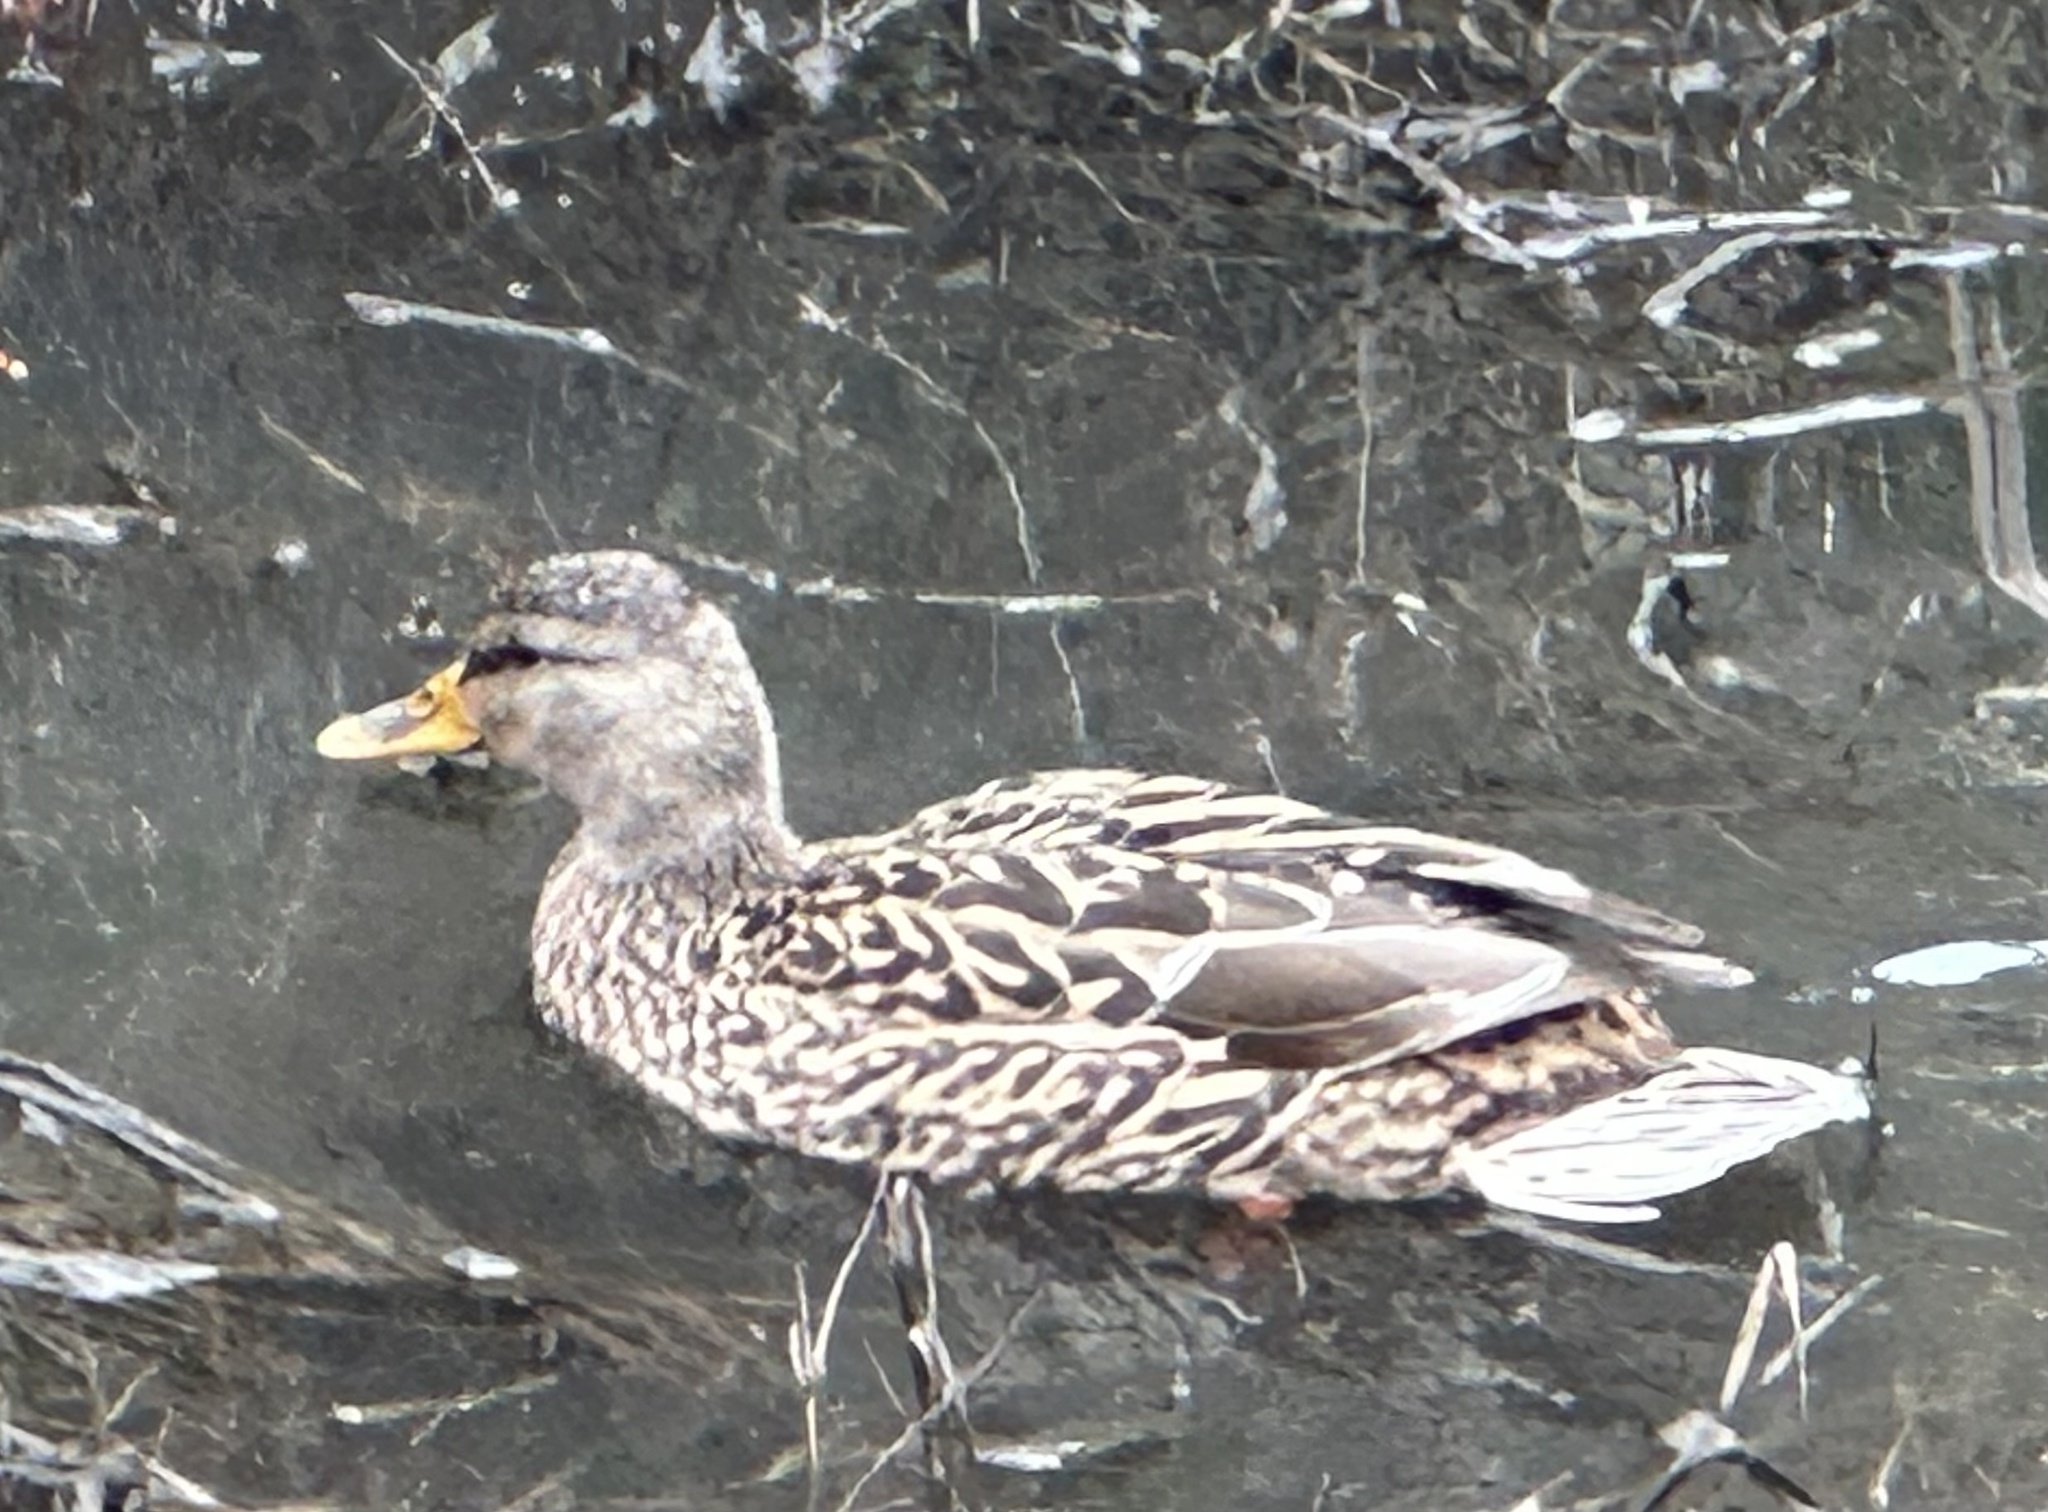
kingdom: Animalia
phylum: Chordata
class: Aves
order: Anseriformes
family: Anatidae
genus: Anas
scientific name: Anas platyrhynchos
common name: Mallard
